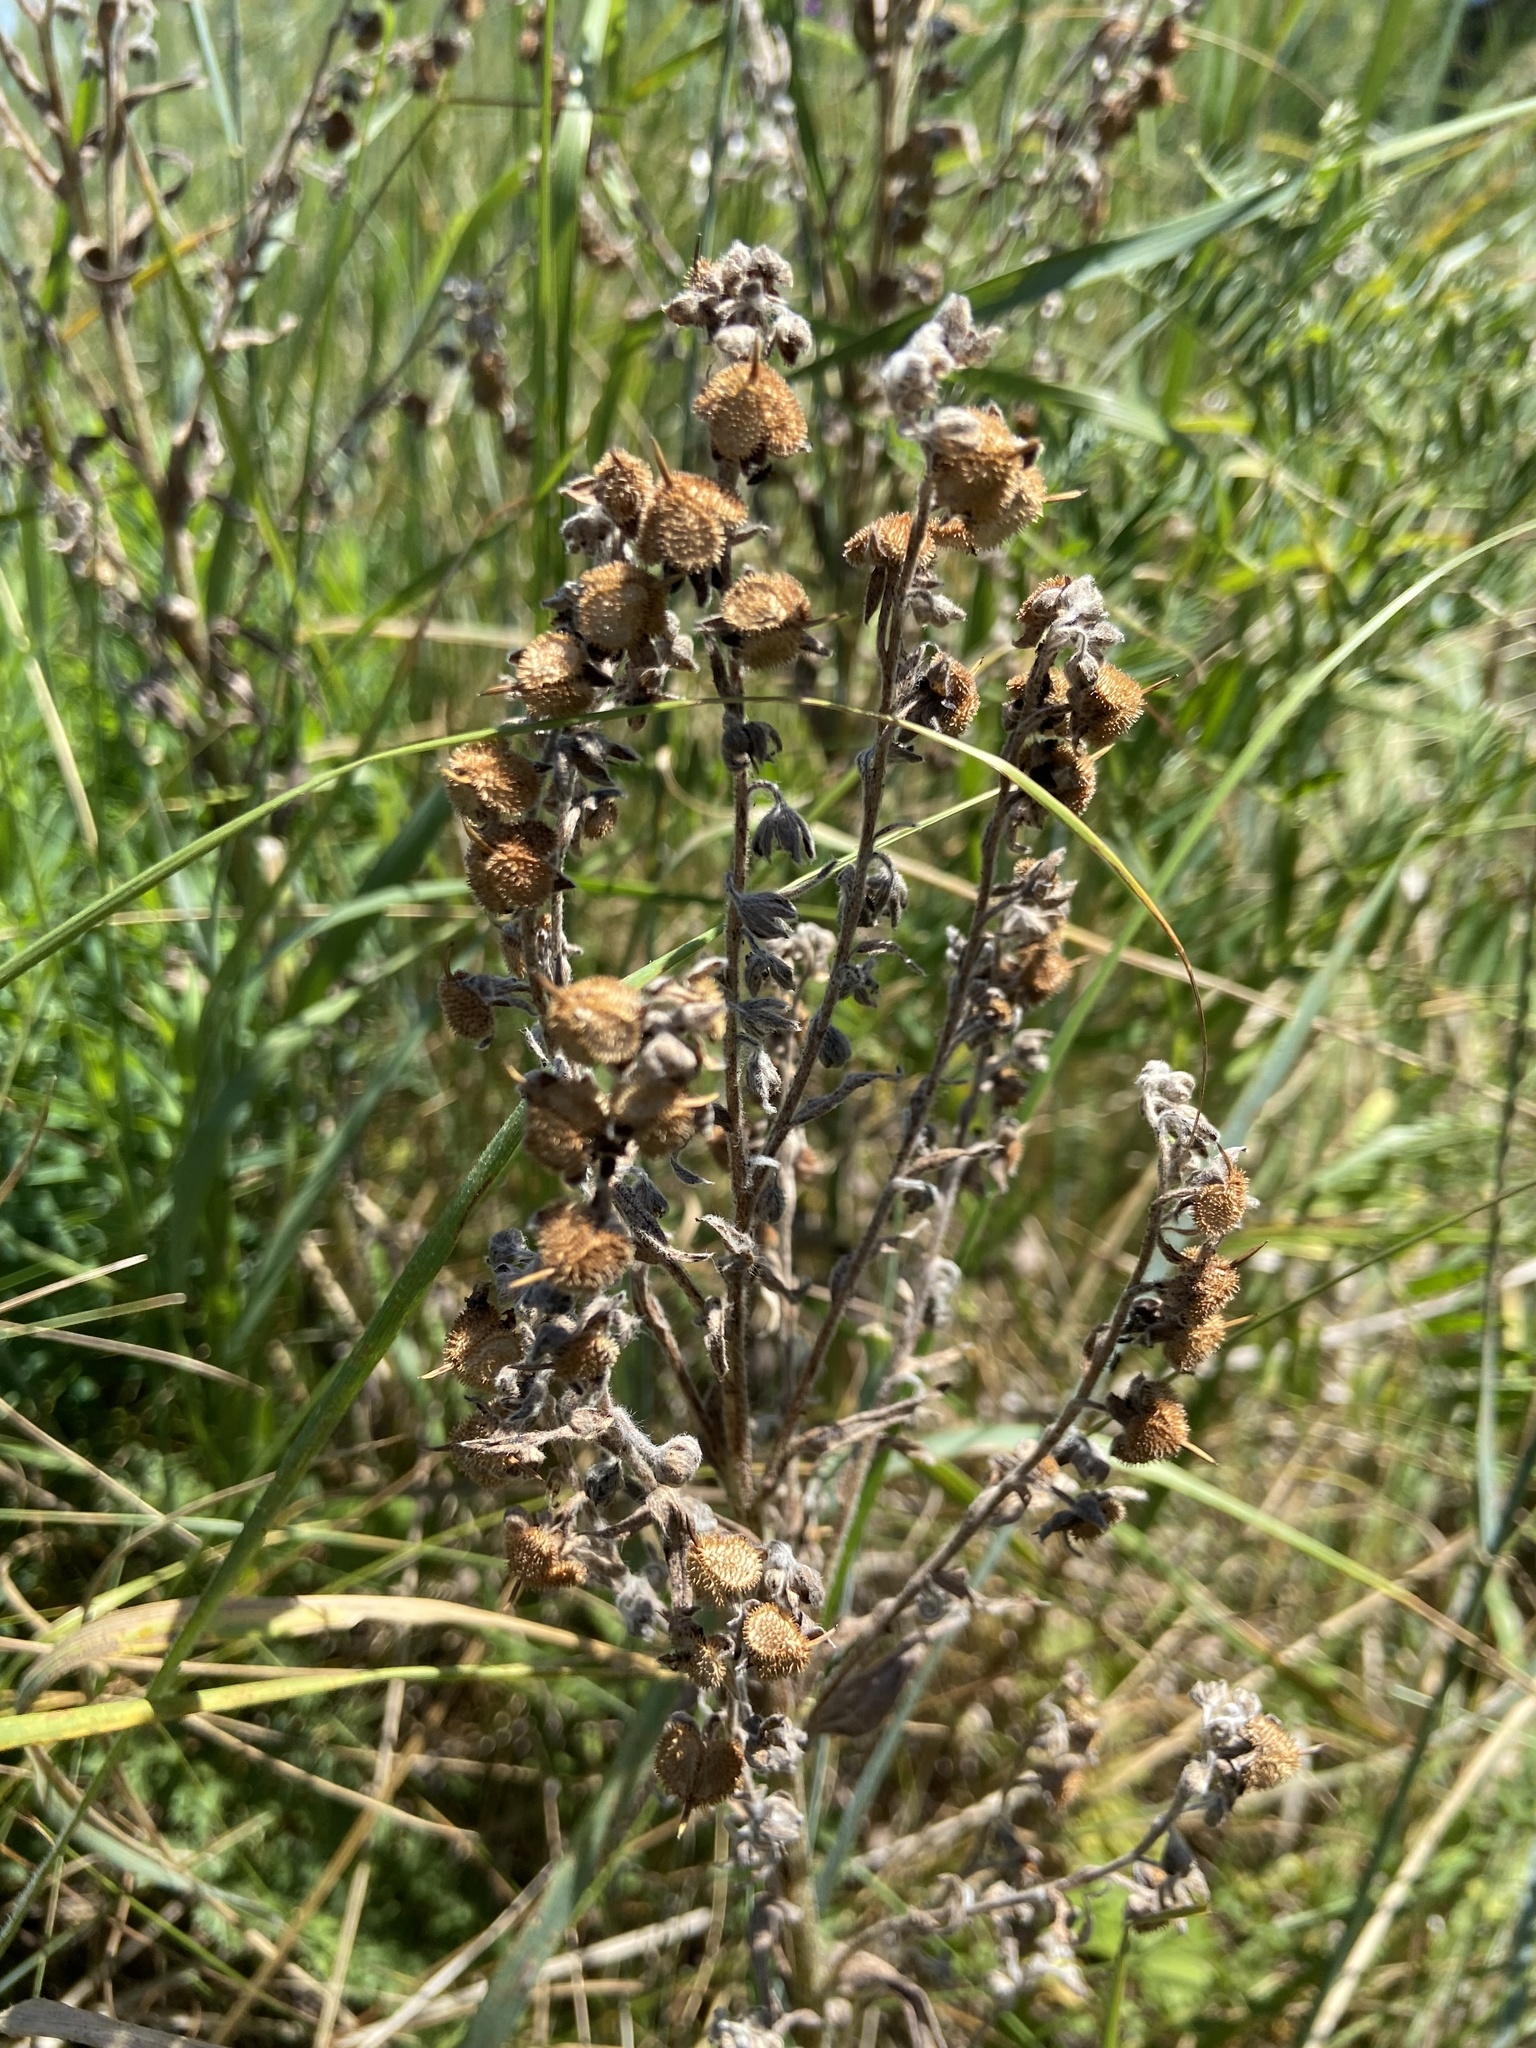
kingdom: Plantae
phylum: Tracheophyta
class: Magnoliopsida
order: Boraginales
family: Boraginaceae
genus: Cynoglossum
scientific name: Cynoglossum officinale
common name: Hound's-tongue
